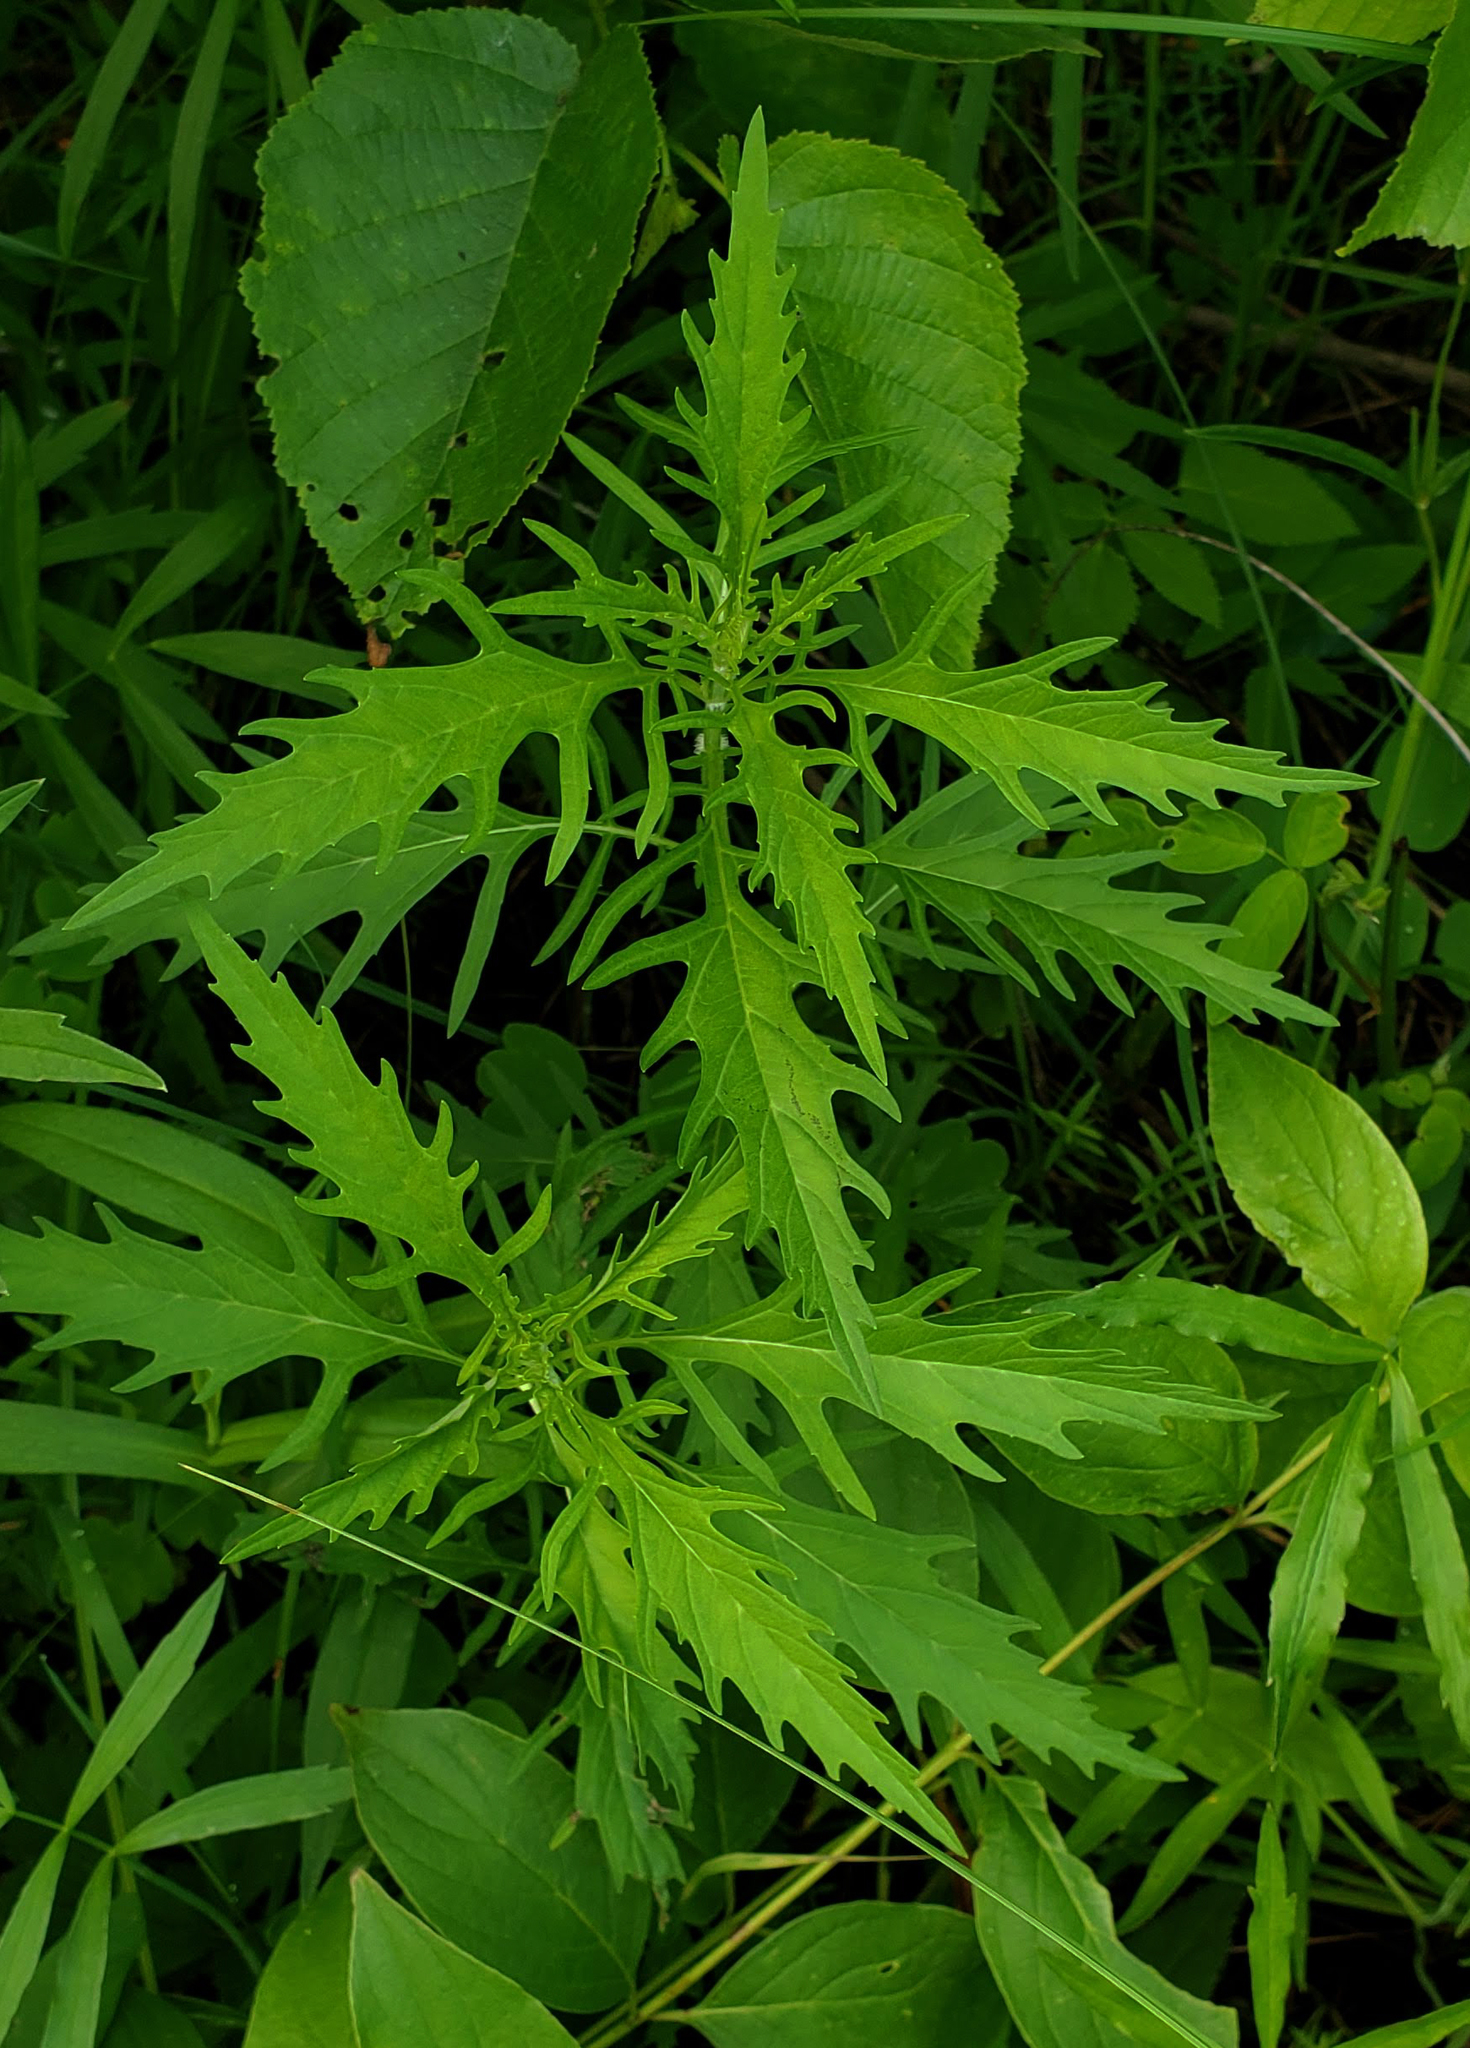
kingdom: Plantae
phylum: Tracheophyta
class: Magnoliopsida
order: Lamiales
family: Lamiaceae
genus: Lycopus
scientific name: Lycopus americanus
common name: American bugleweed
